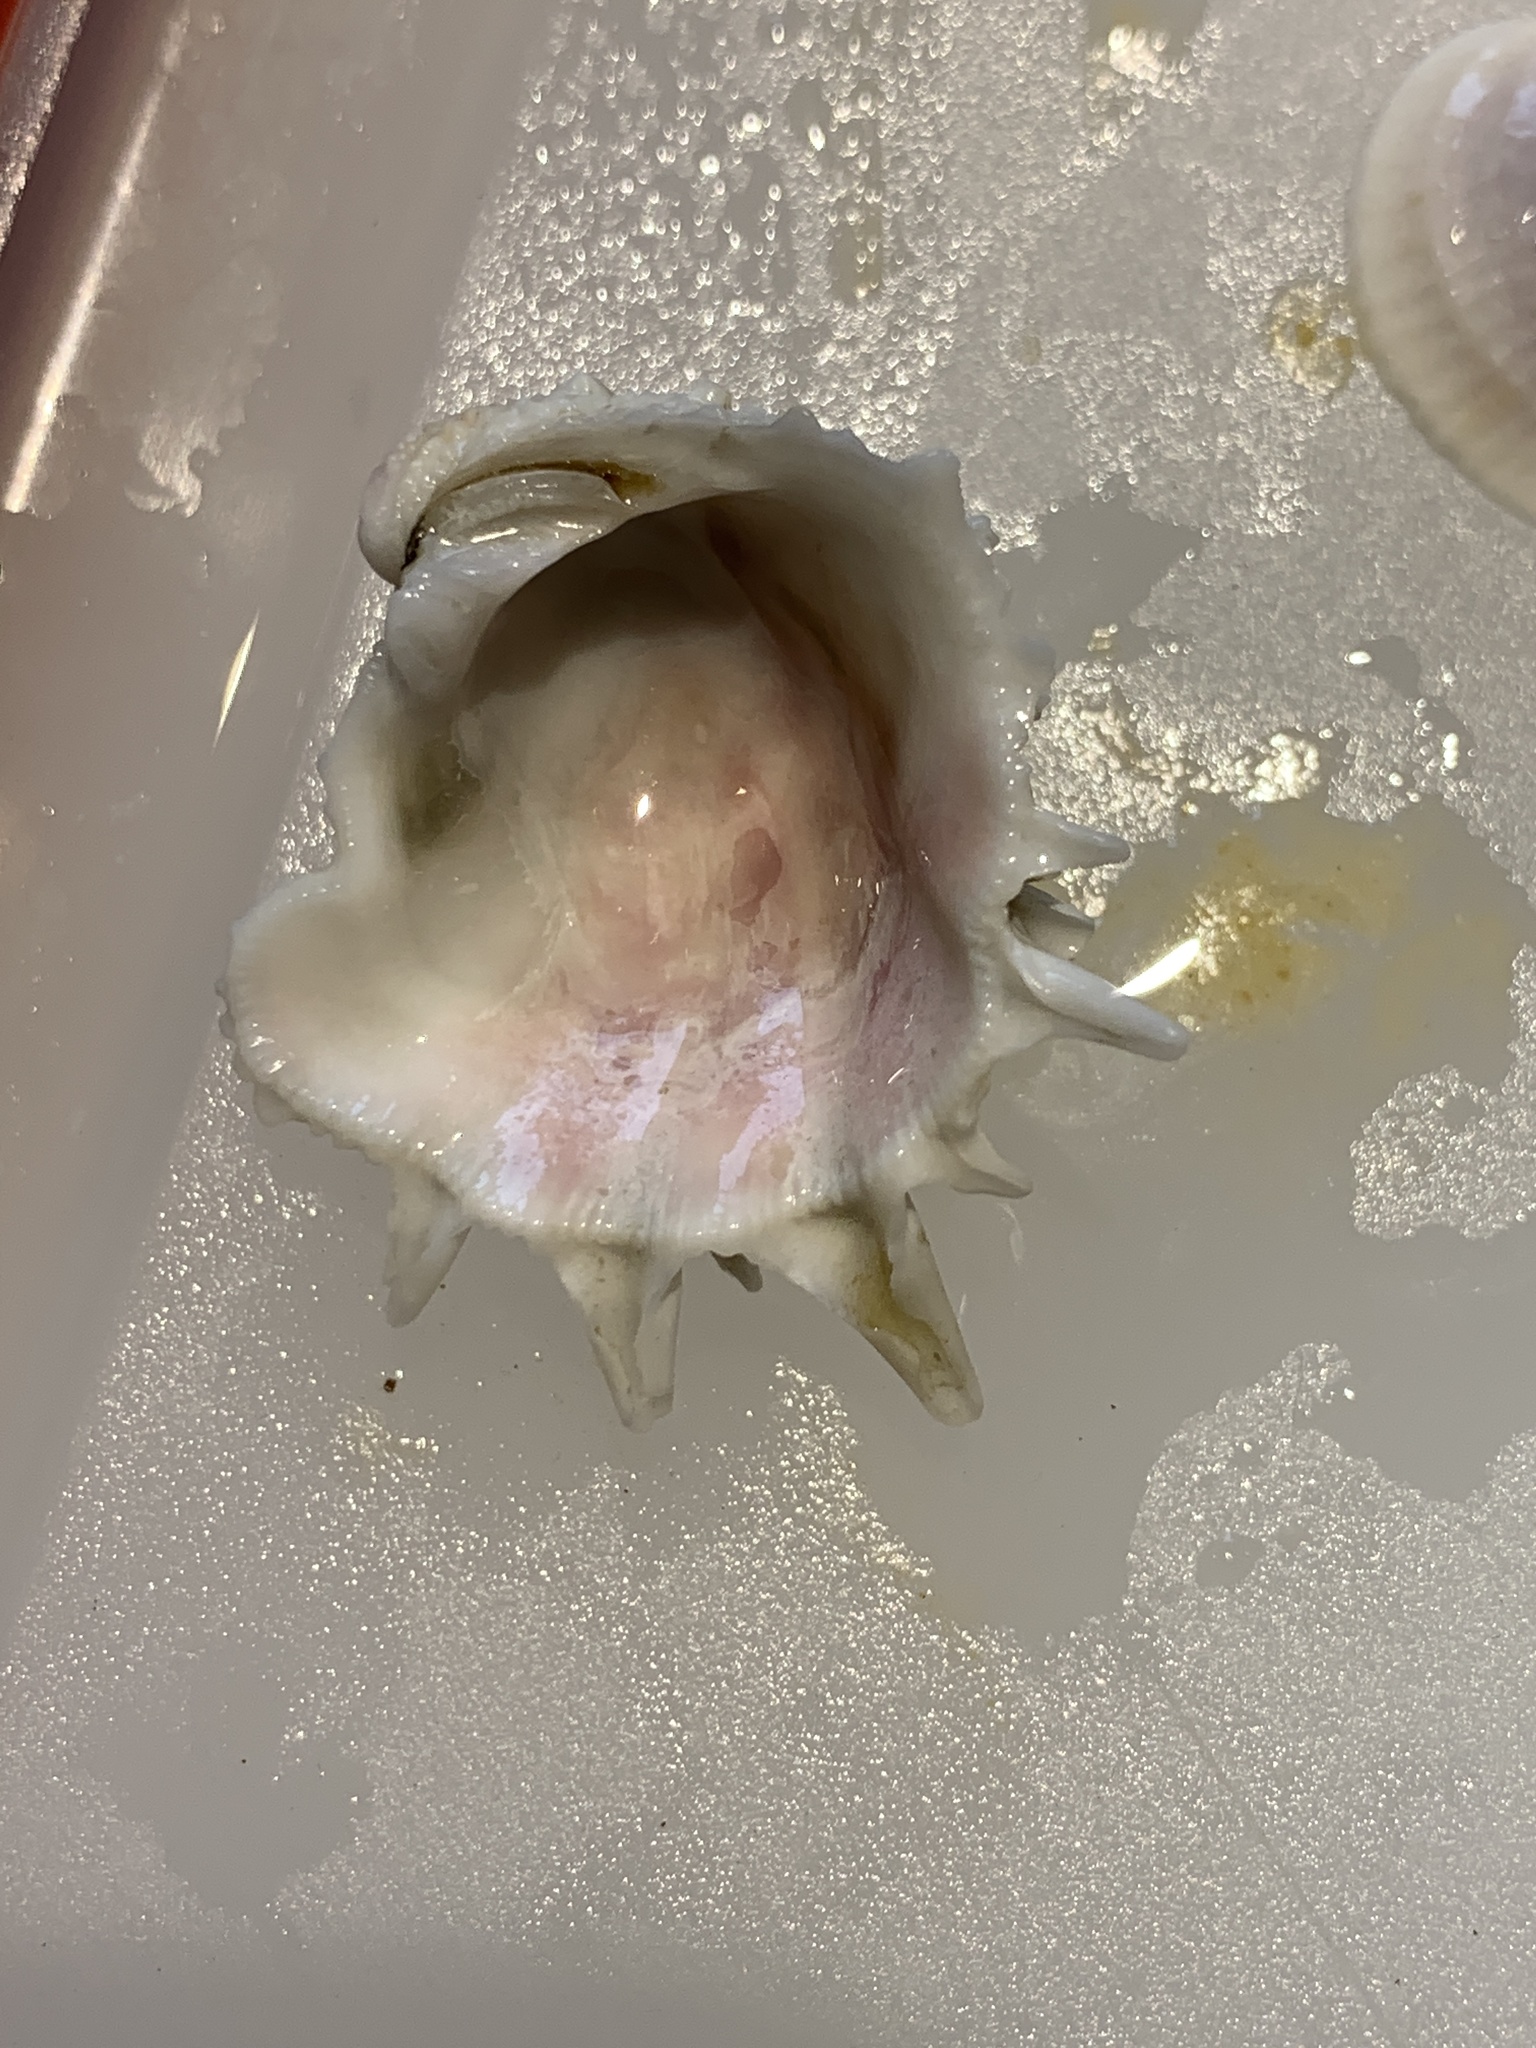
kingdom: Animalia
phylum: Mollusca
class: Bivalvia
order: Venerida
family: Chamidae
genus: Arcinella
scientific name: Arcinella cornuta
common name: Florida spiny jewel box
